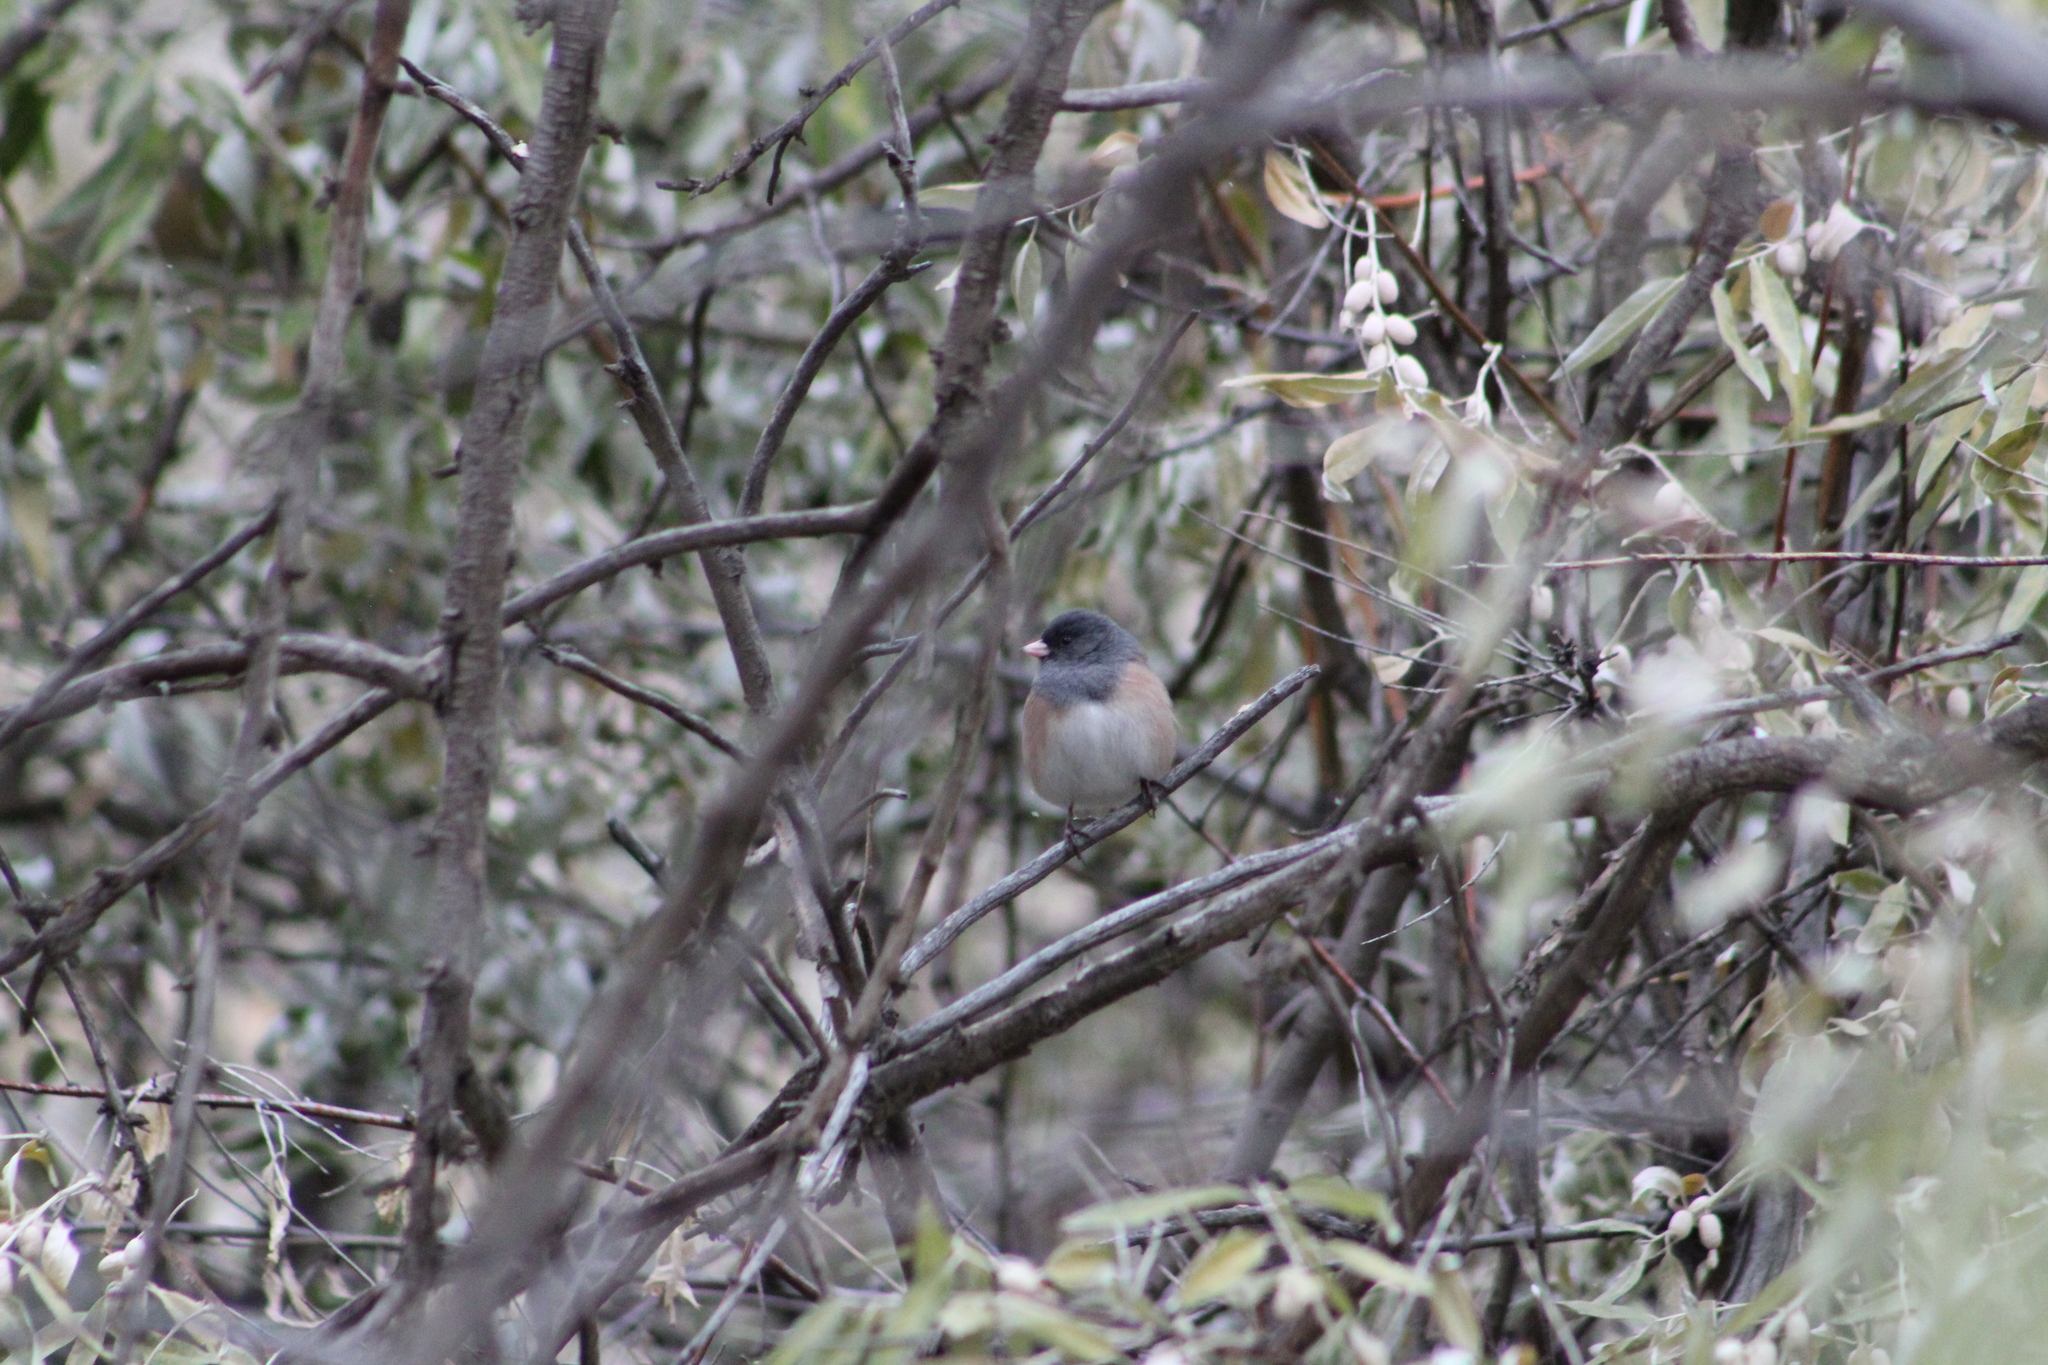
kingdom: Animalia
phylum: Chordata
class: Aves
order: Passeriformes
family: Passerellidae
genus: Junco
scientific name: Junco hyemalis
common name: Dark-eyed junco
